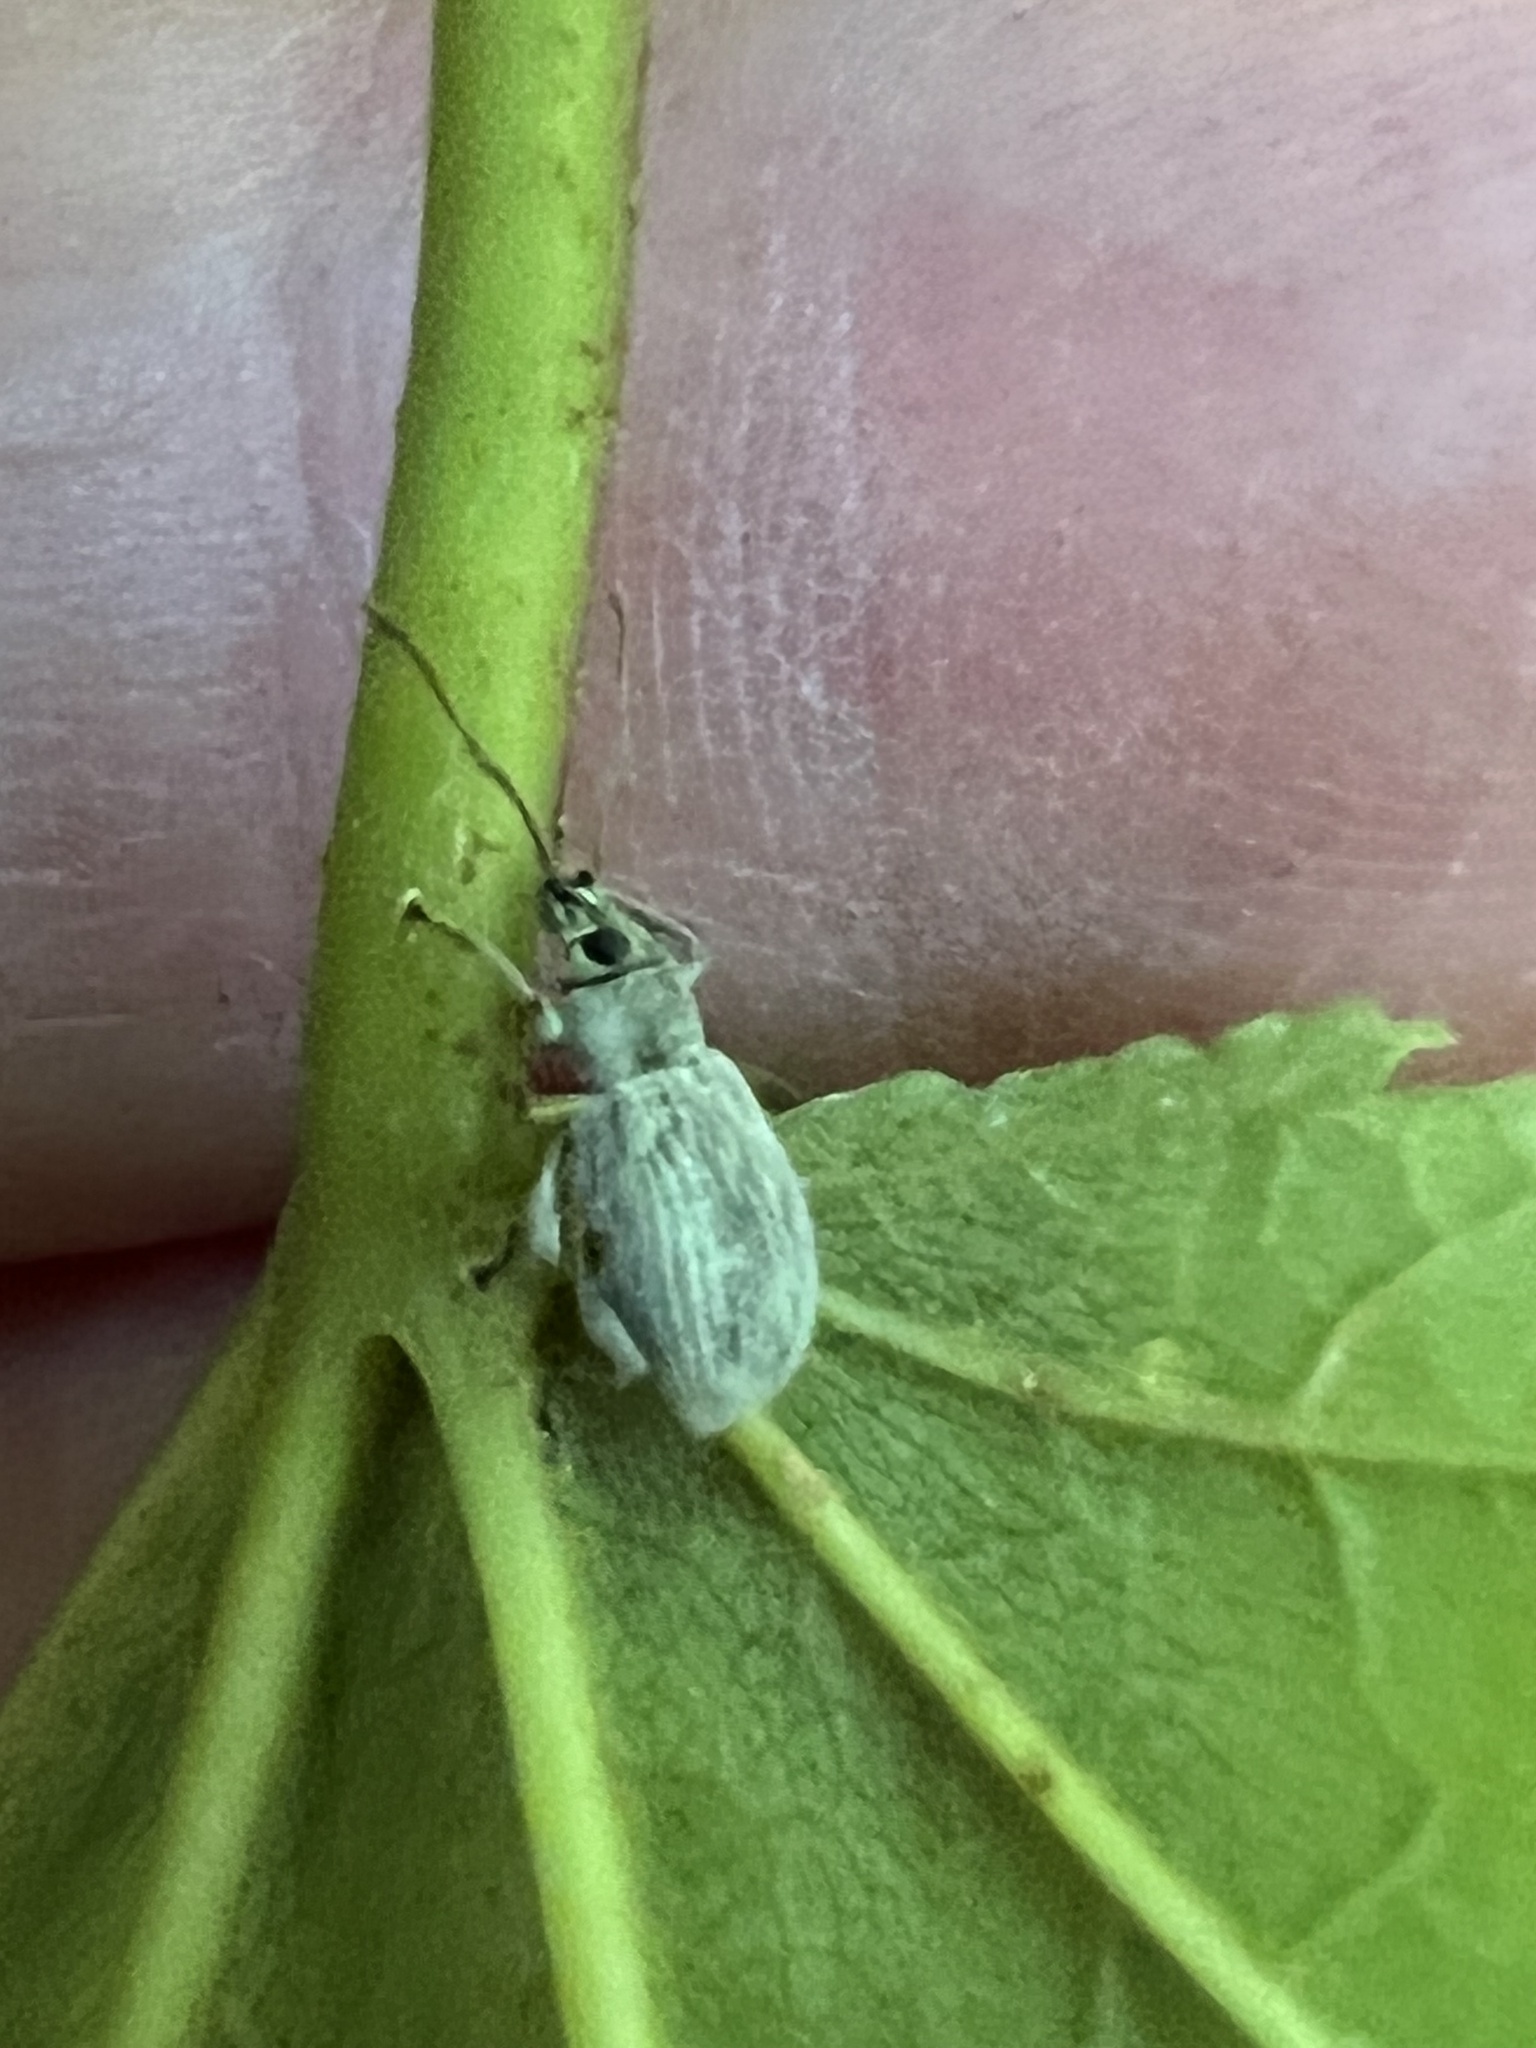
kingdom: Animalia
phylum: Arthropoda
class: Insecta
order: Coleoptera
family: Curculionidae
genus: Cyrtepistomus
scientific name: Cyrtepistomus castaneus
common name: Weevil
